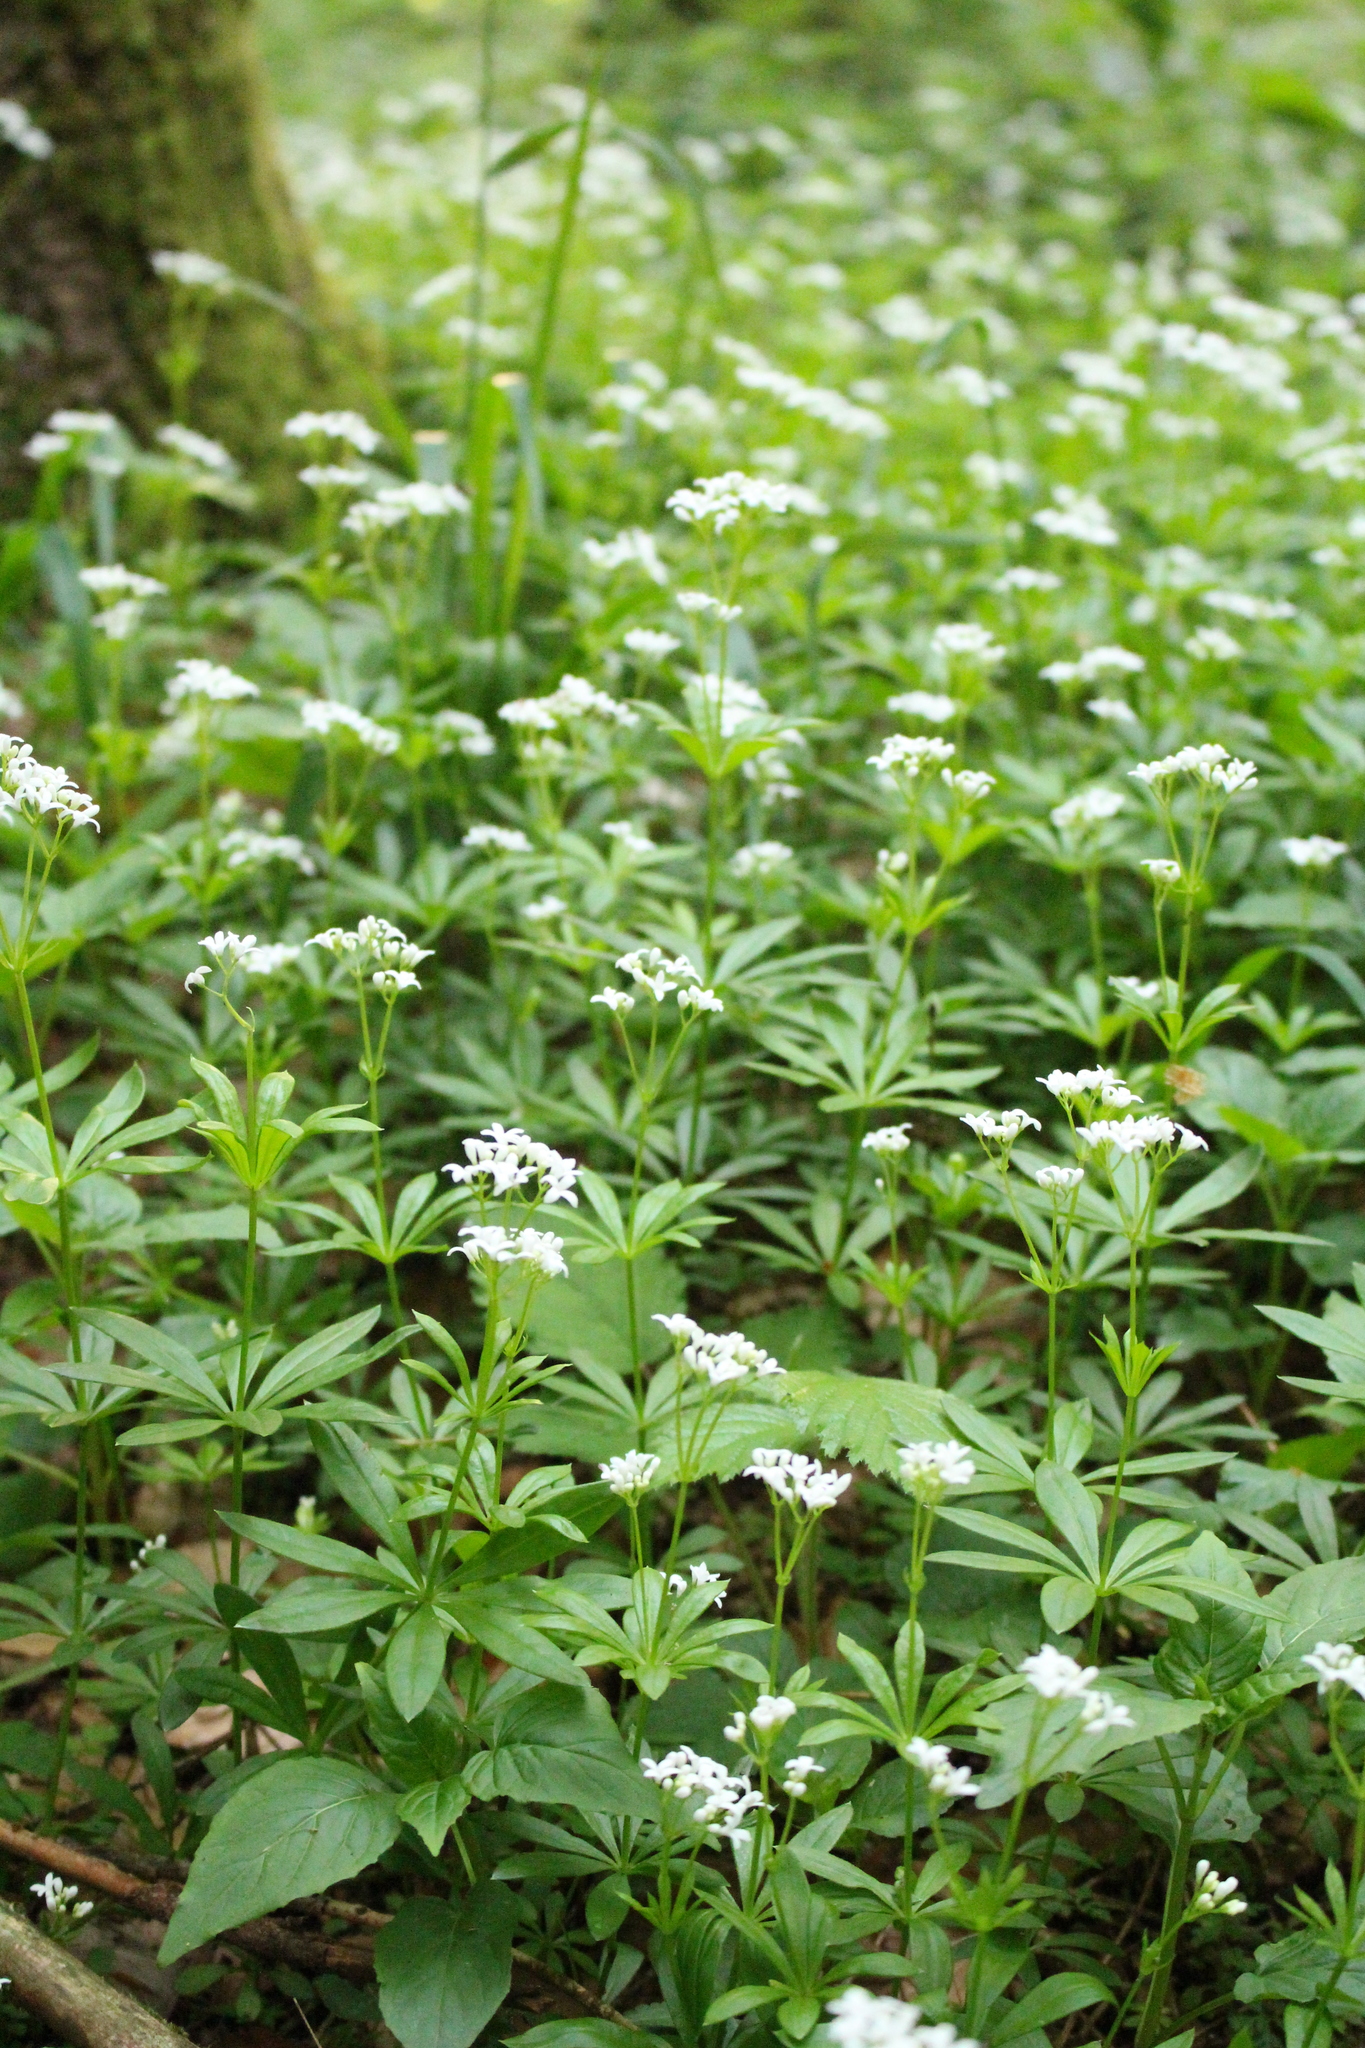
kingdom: Plantae
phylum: Tracheophyta
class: Magnoliopsida
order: Gentianales
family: Rubiaceae
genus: Galium
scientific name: Galium odoratum
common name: Sweet woodruff
